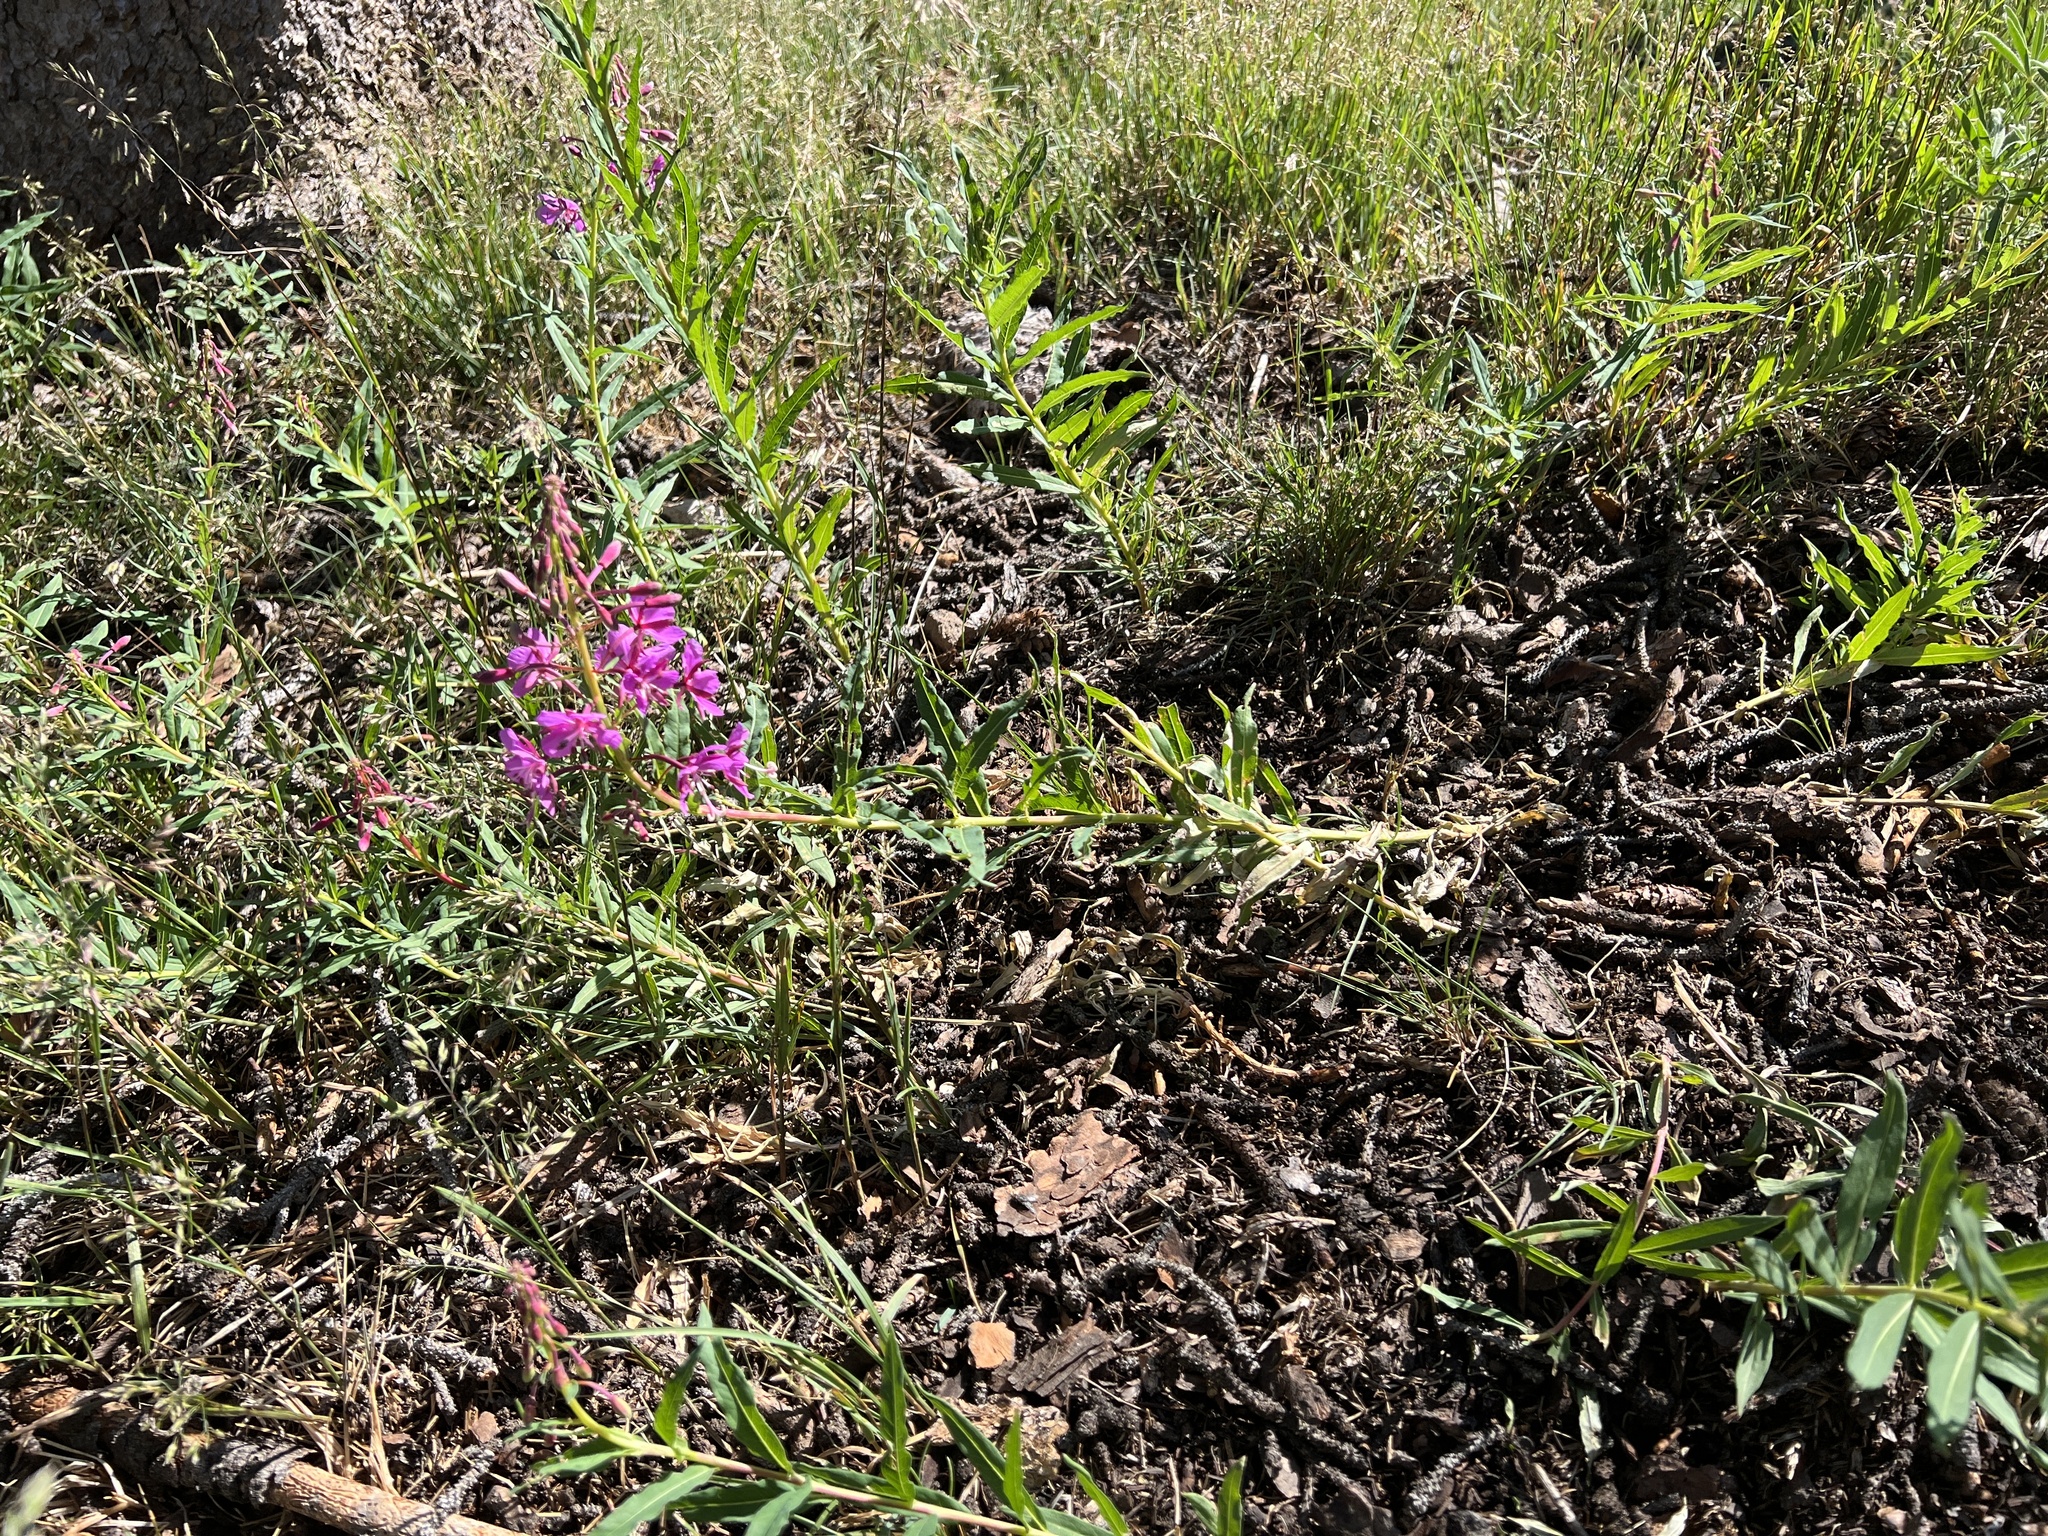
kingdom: Plantae
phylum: Tracheophyta
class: Magnoliopsida
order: Myrtales
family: Onagraceae
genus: Chamaenerion
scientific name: Chamaenerion angustifolium
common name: Fireweed
